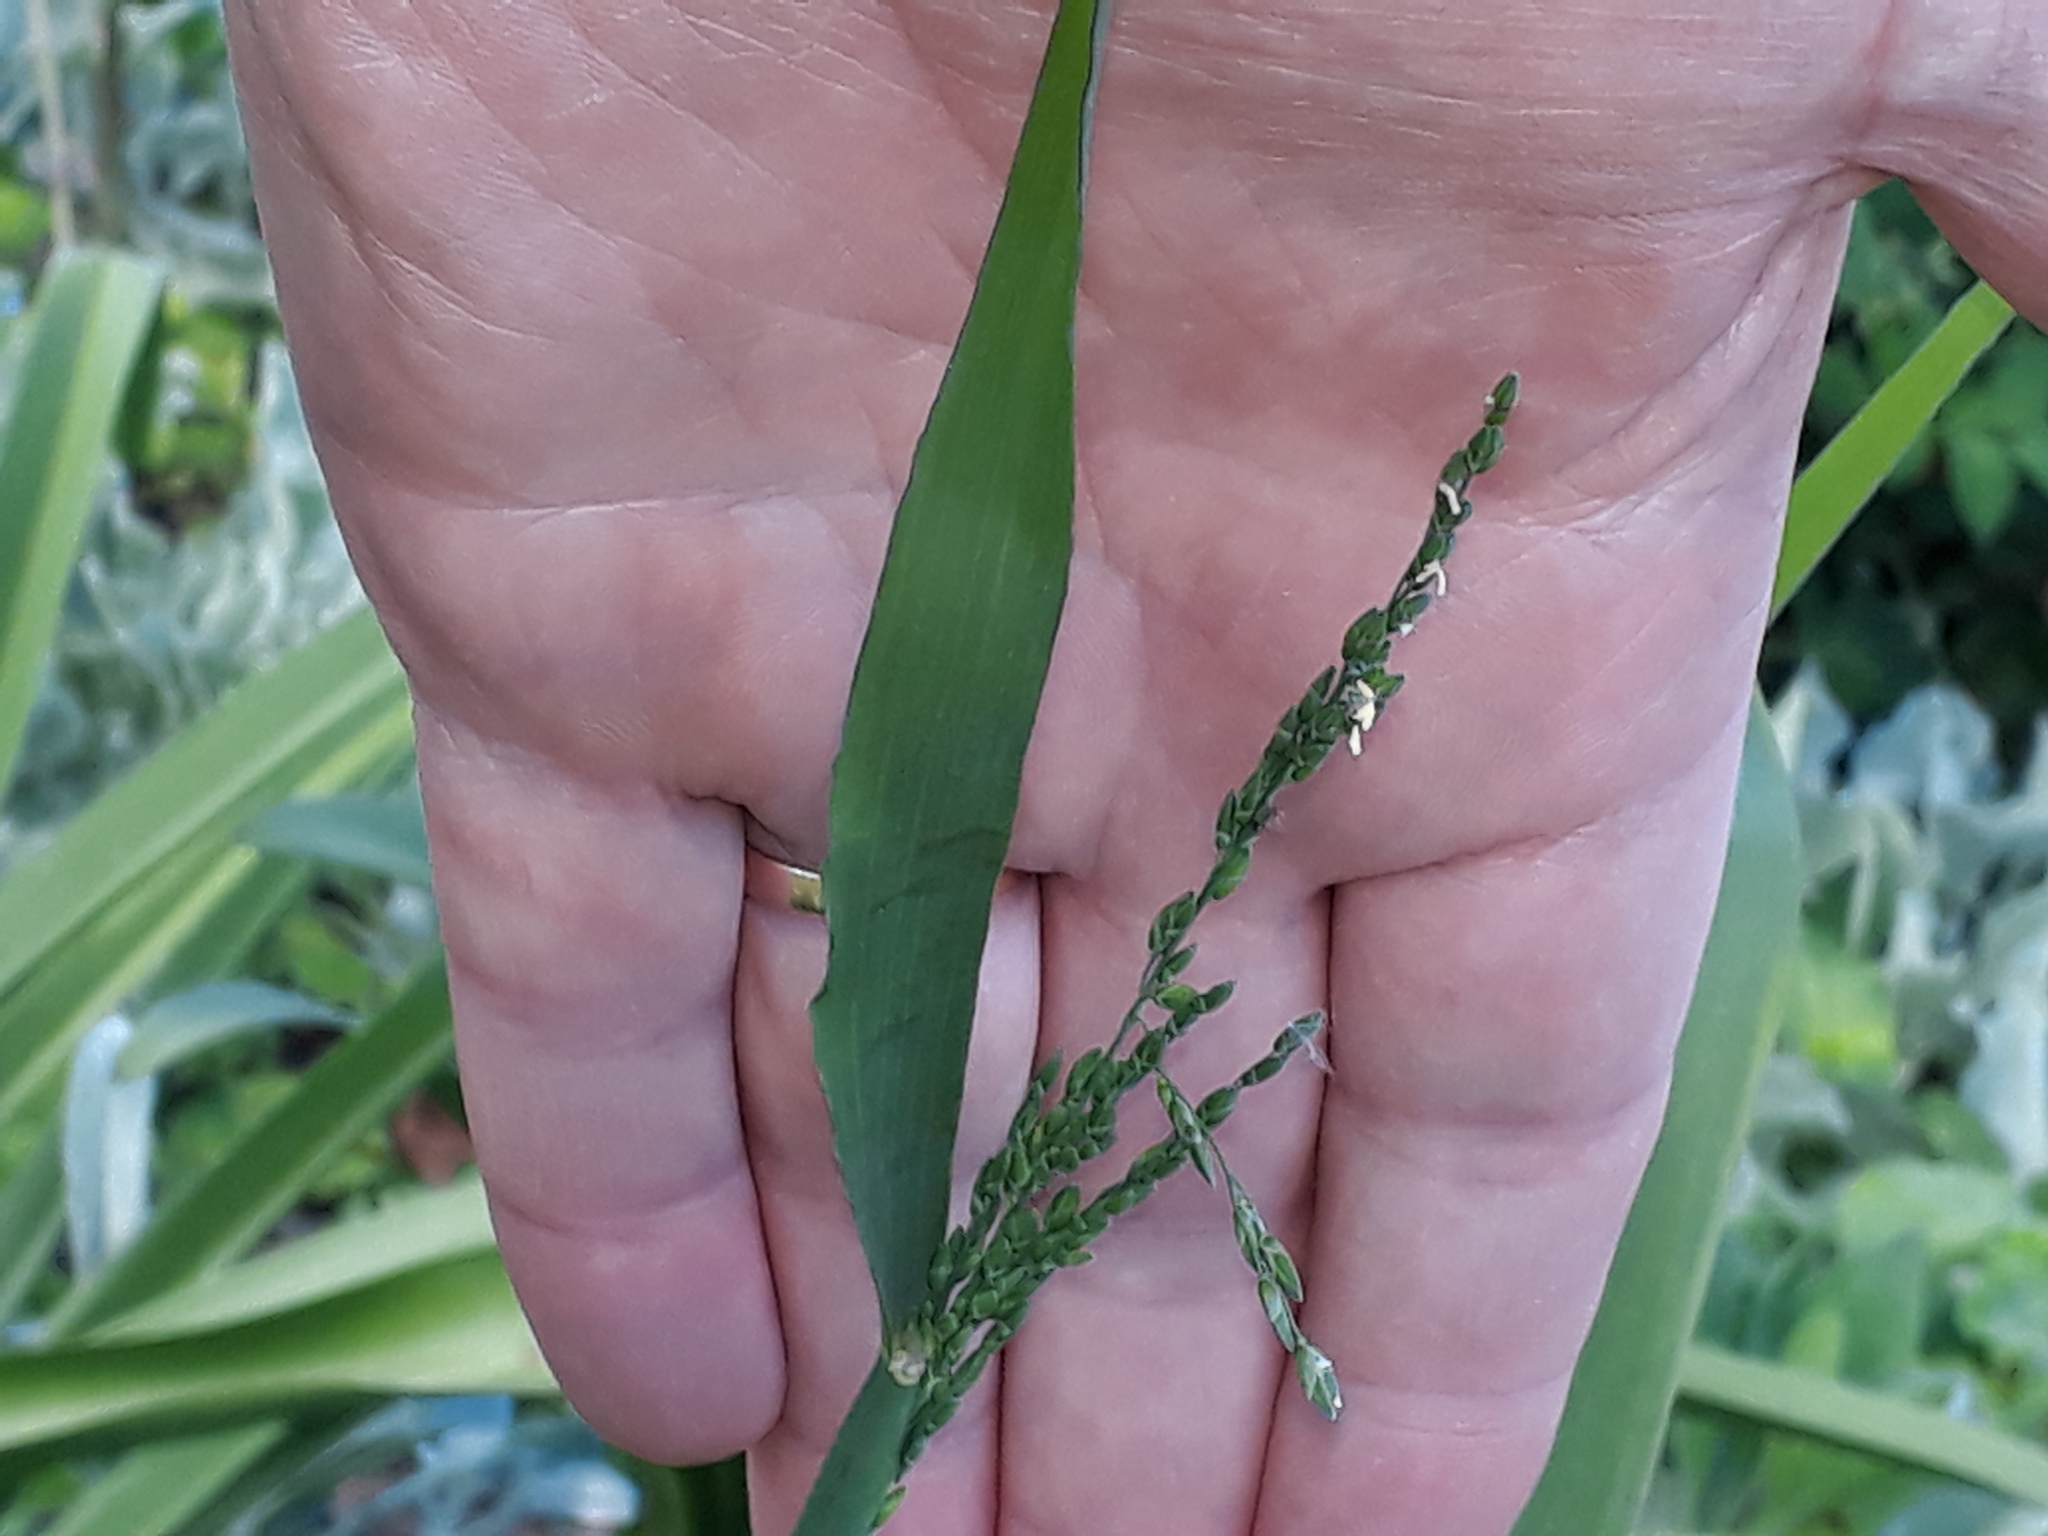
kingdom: Plantae
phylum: Tracheophyta
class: Liliopsida
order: Poales
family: Poaceae
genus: Ehrharta
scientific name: Ehrharta erecta
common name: Panic veldtgrass
